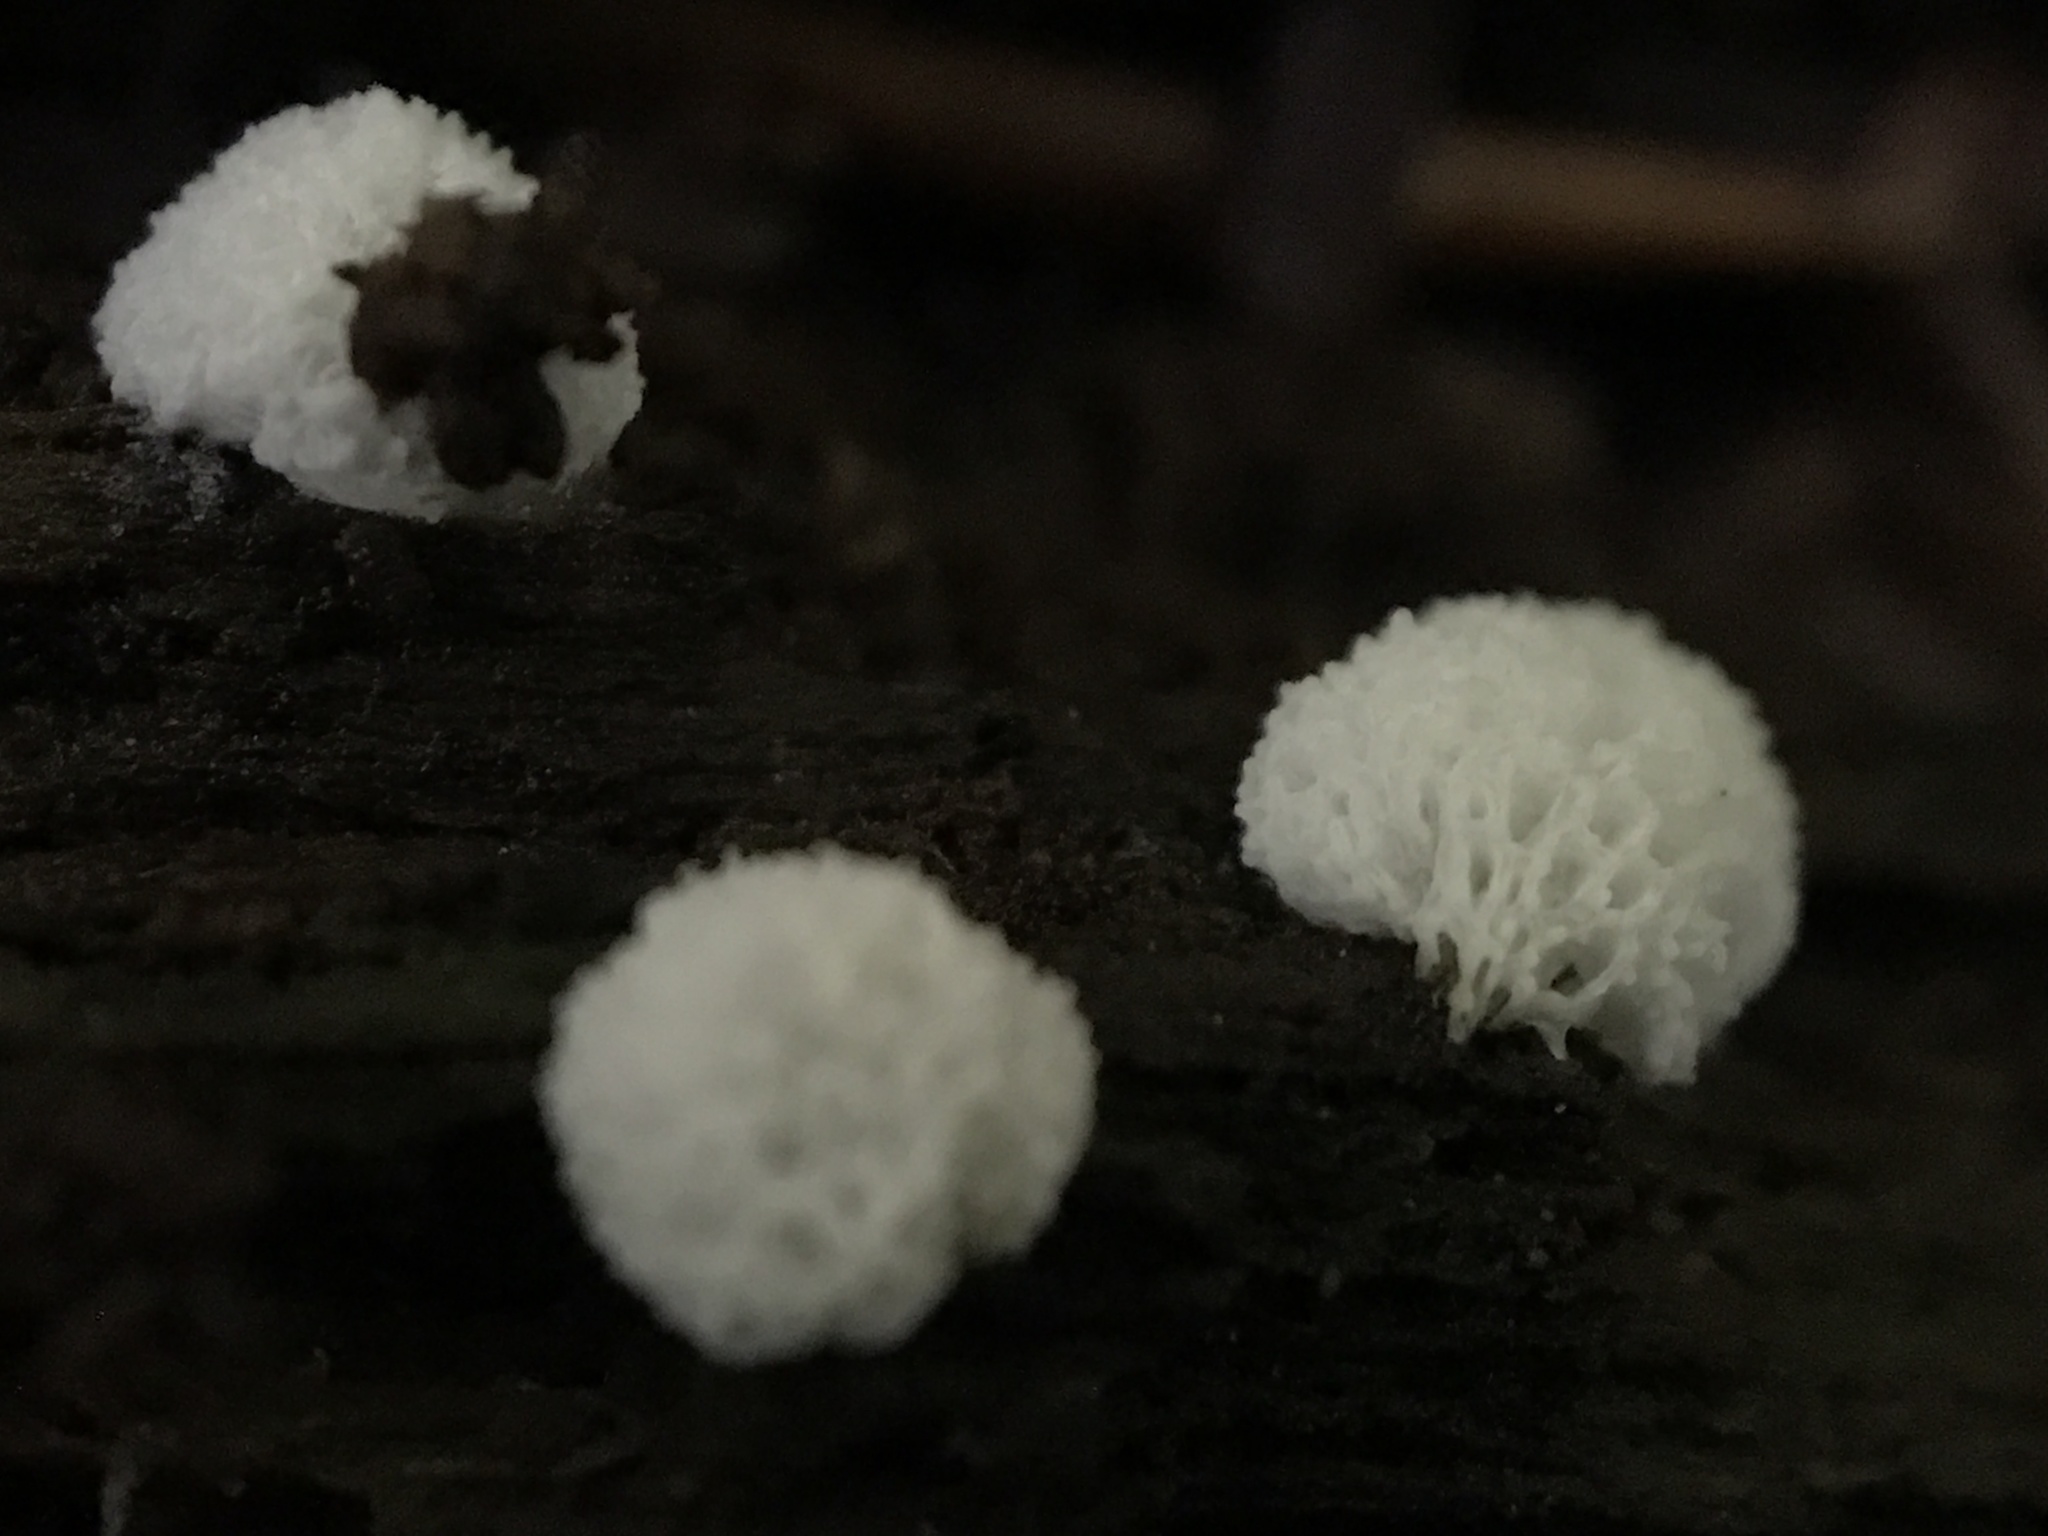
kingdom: Protozoa
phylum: Mycetozoa
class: Protosteliomycetes
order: Ceratiomyxales
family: Ceratiomyxaceae
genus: Ceratiomyxa
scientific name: Ceratiomyxa fruticulosa
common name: Honeycomb coral slime mold
